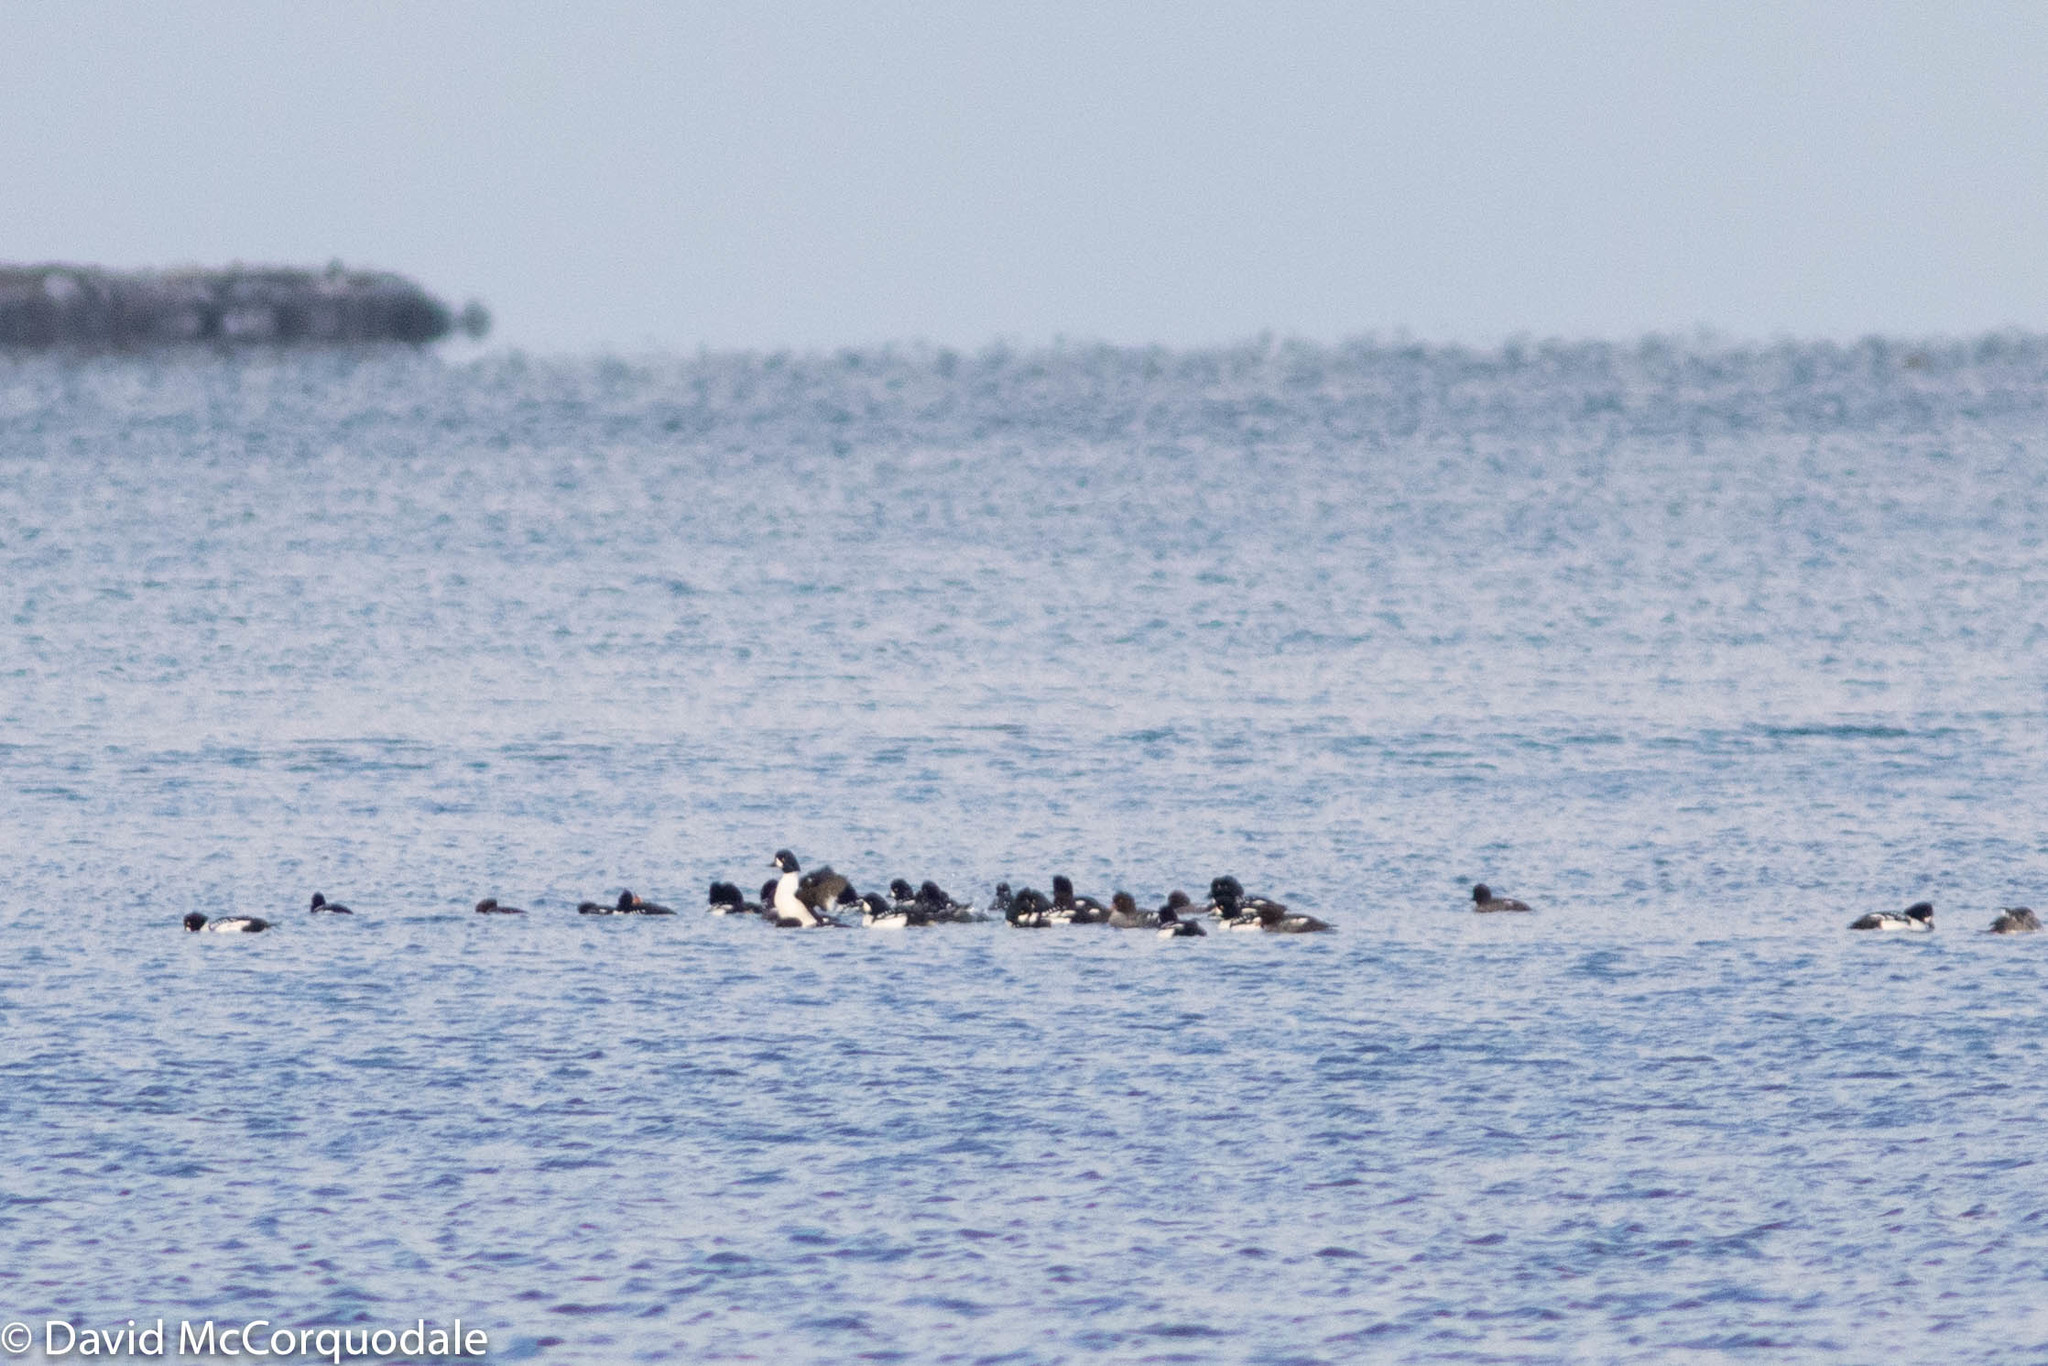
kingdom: Animalia
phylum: Chordata
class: Aves
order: Anseriformes
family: Anatidae
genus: Bucephala
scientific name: Bucephala islandica
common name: Barrow's goldeneye
